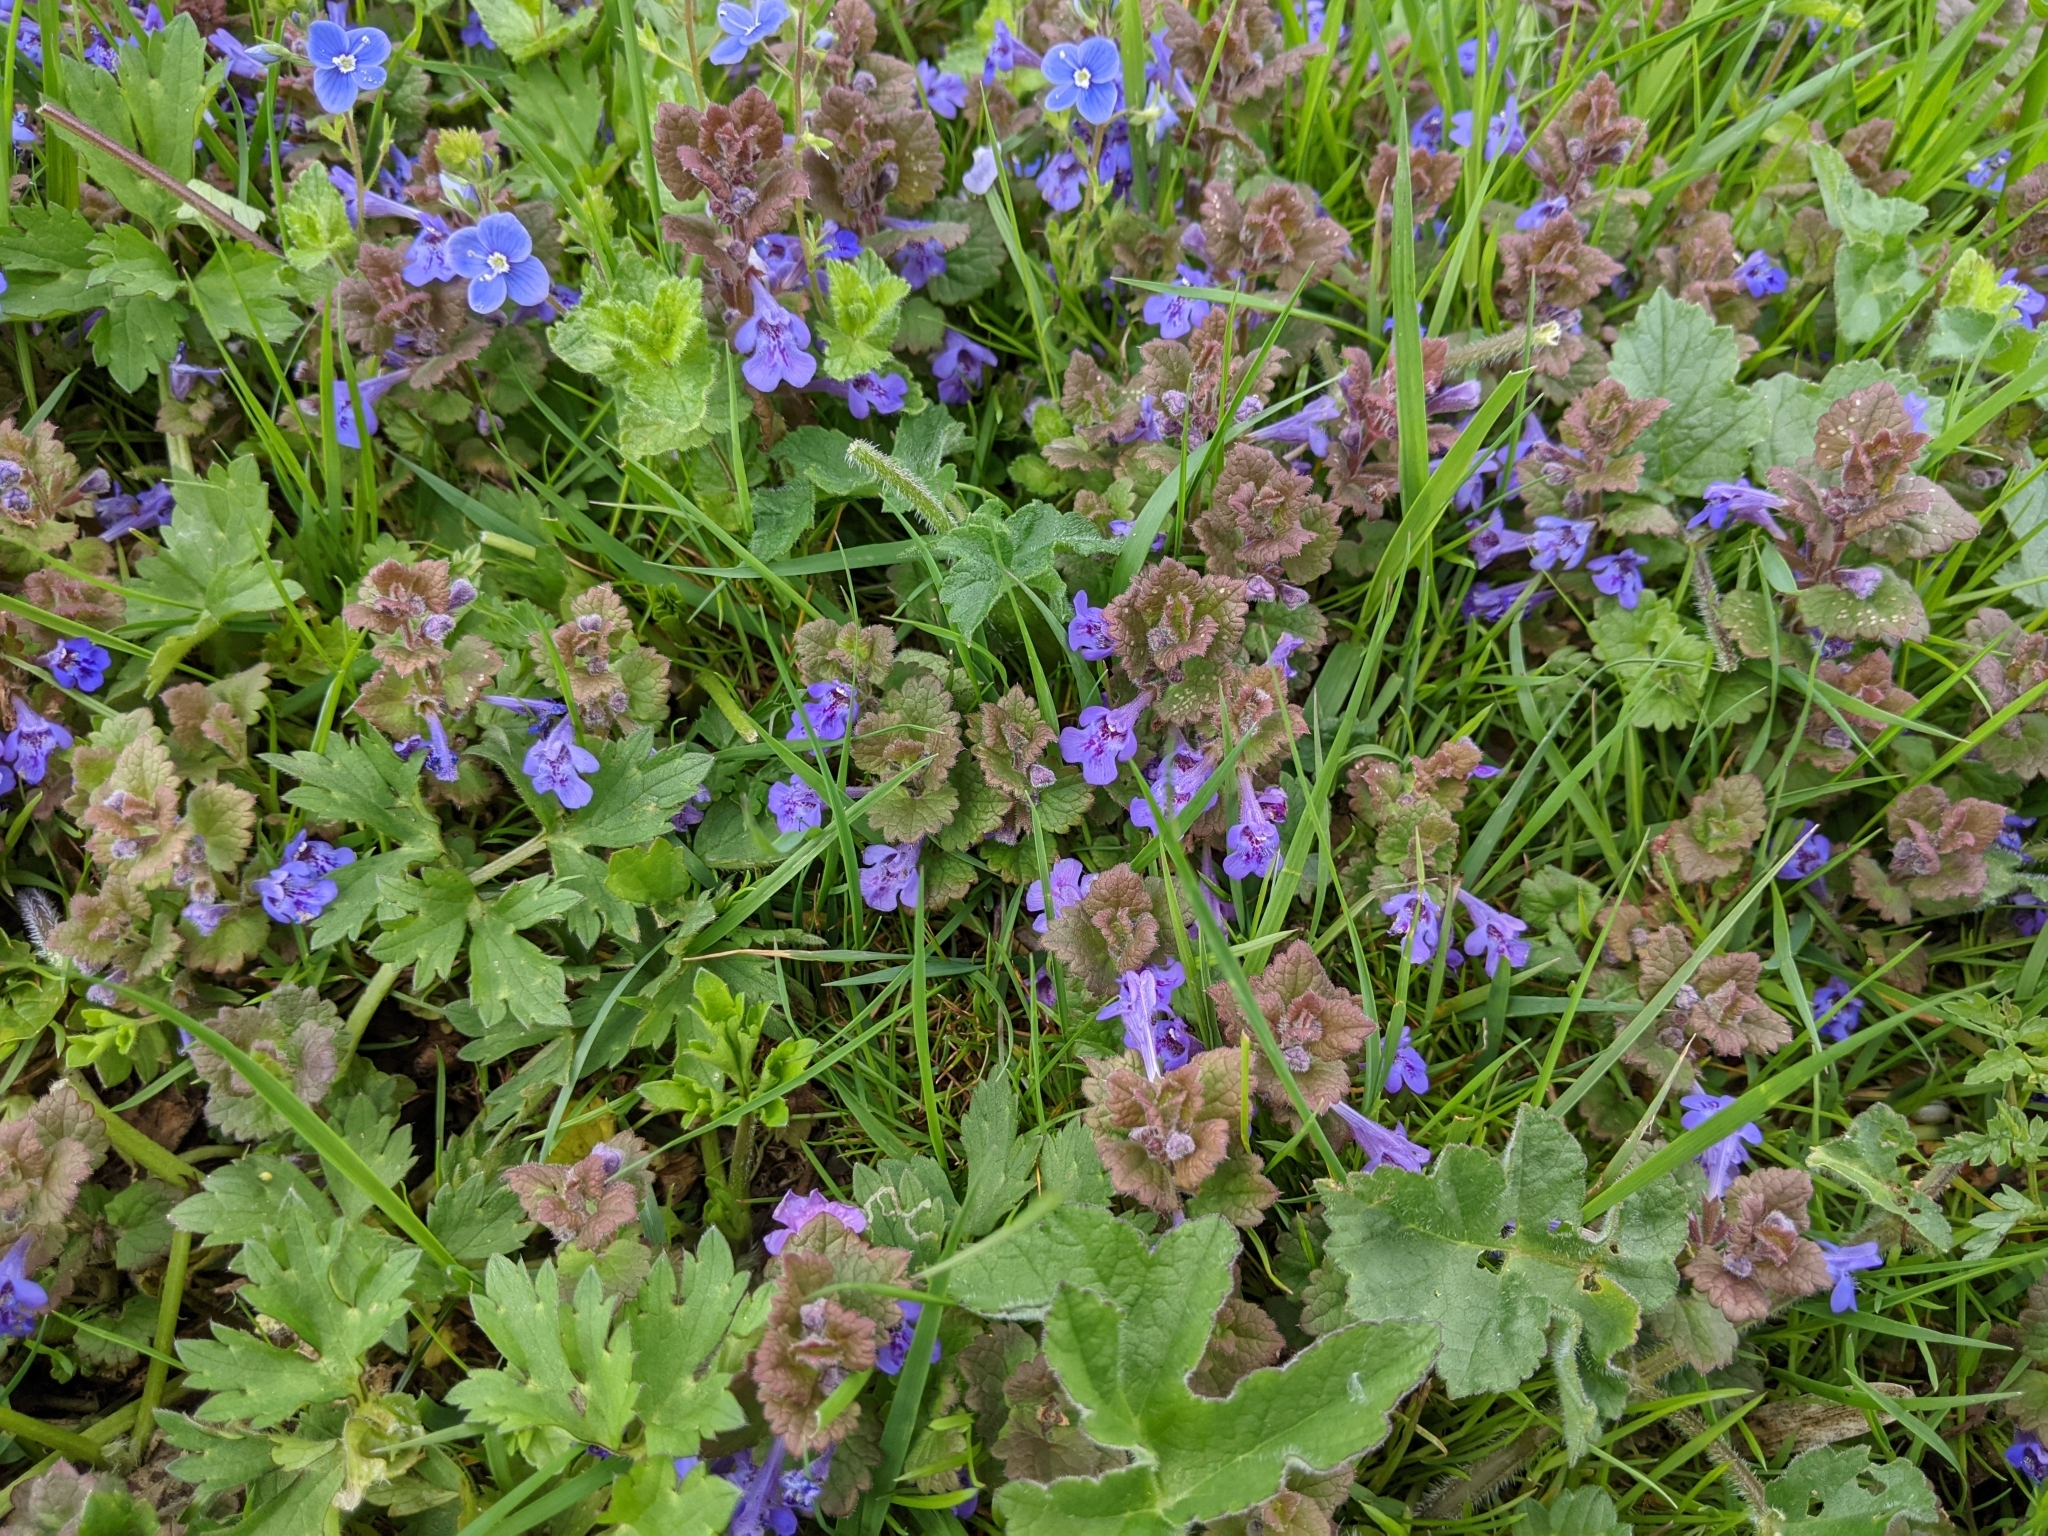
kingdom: Plantae
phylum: Tracheophyta
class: Magnoliopsida
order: Lamiales
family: Lamiaceae
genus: Glechoma
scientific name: Glechoma hederacea
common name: Ground ivy
